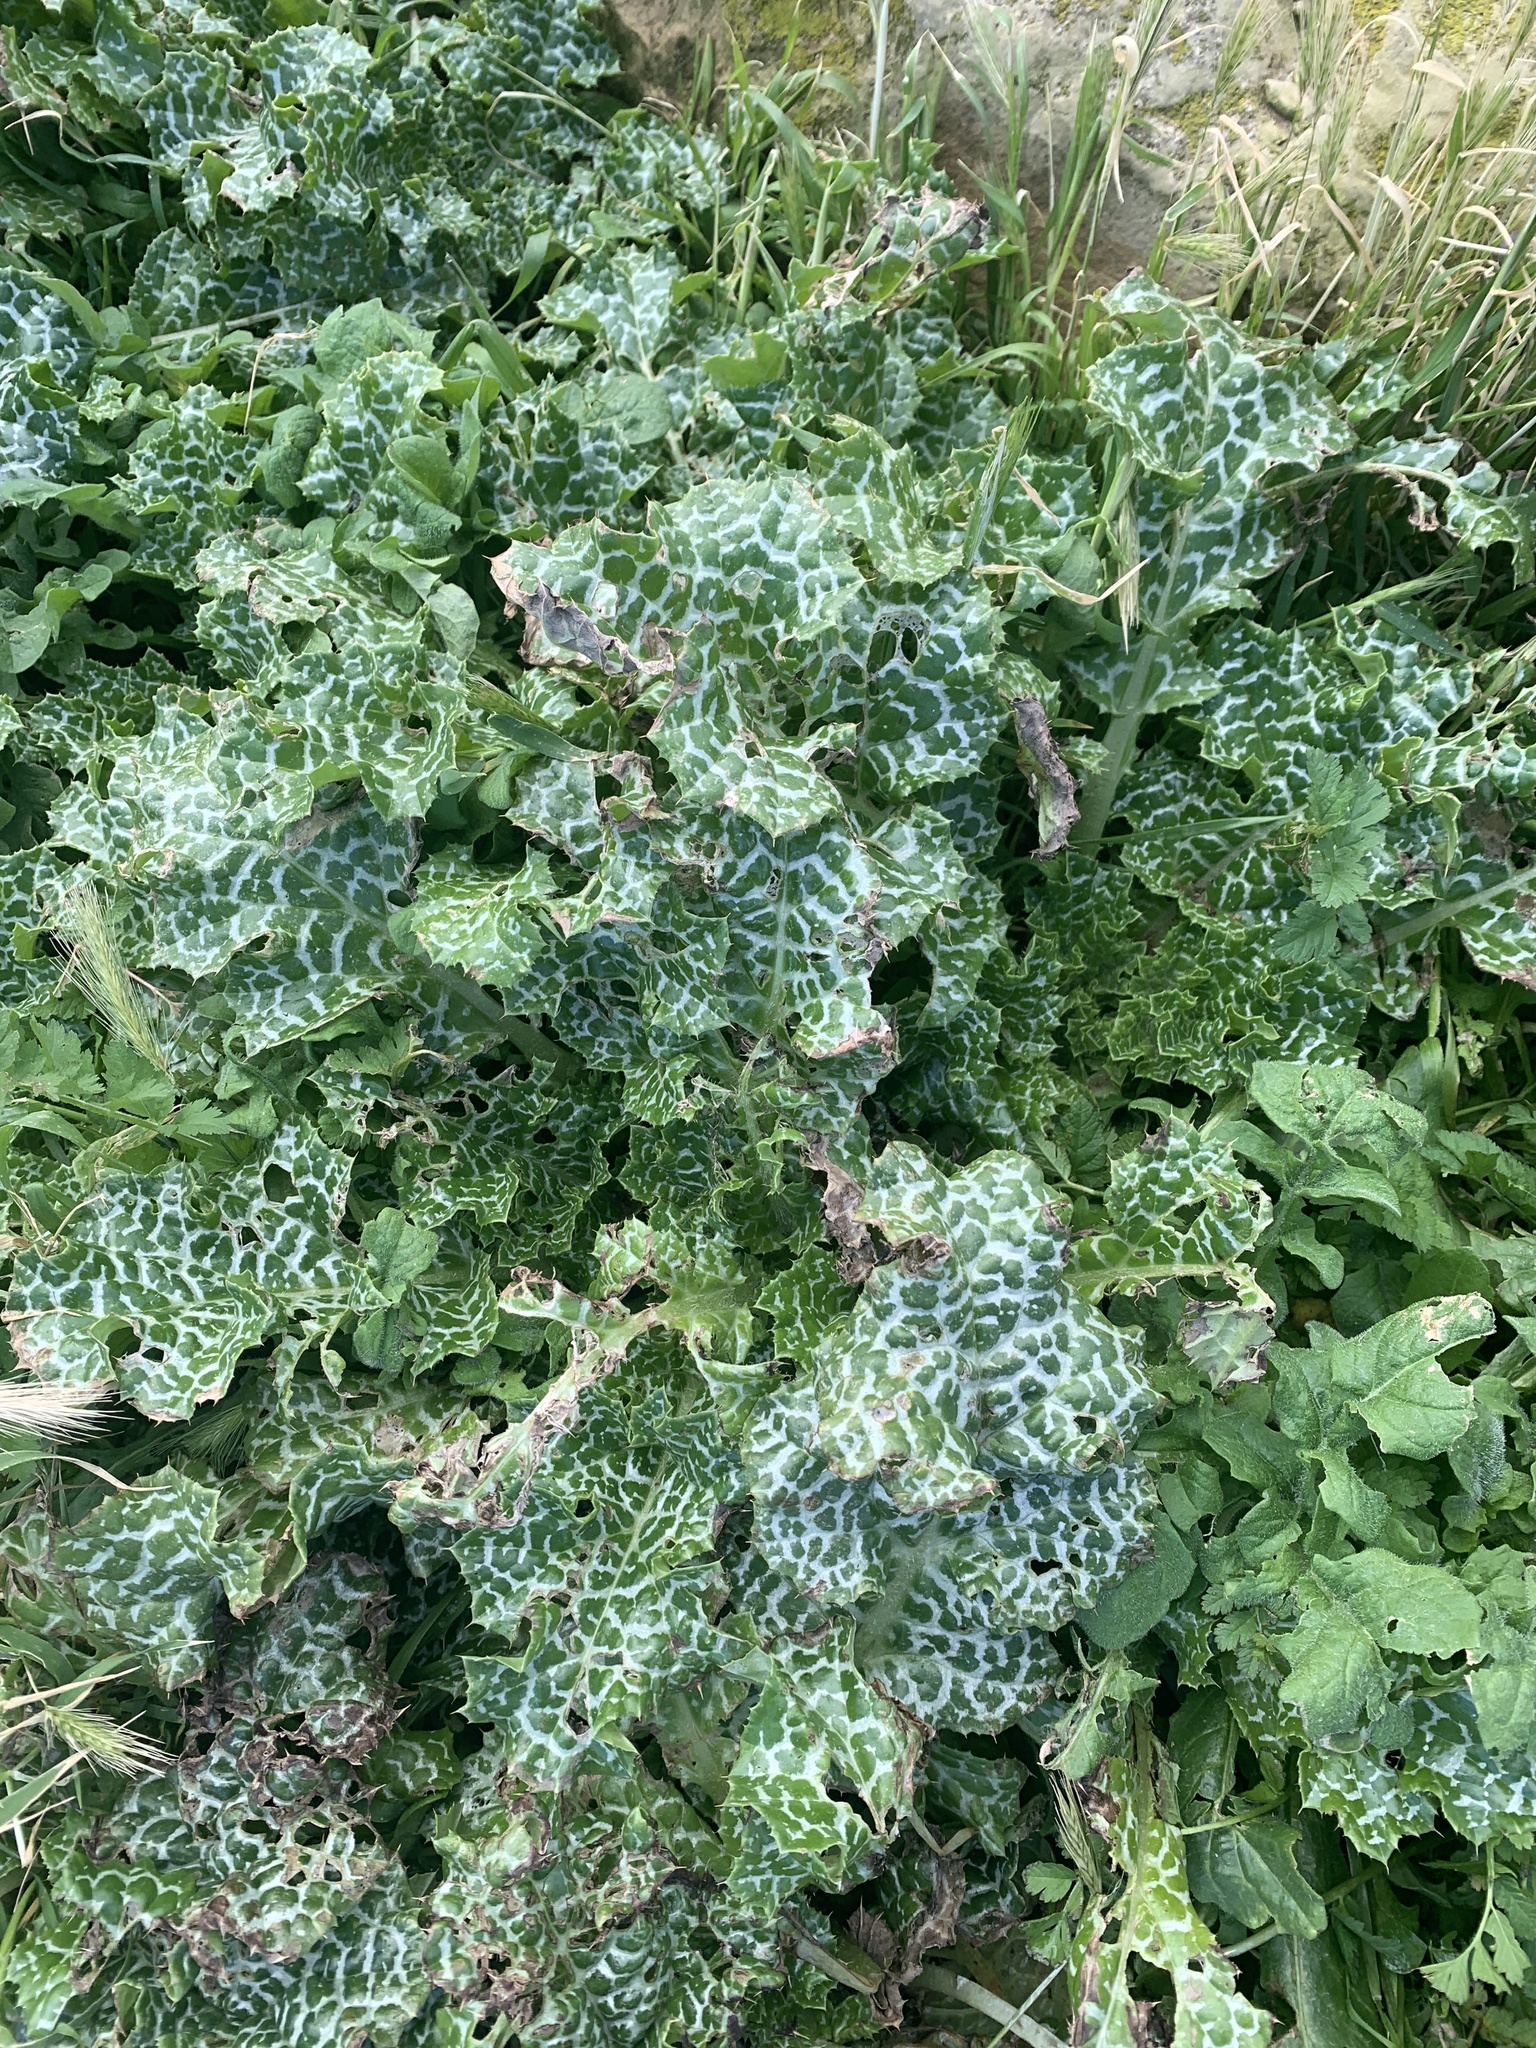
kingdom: Plantae
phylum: Tracheophyta
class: Magnoliopsida
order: Asterales
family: Asteraceae
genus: Silybum
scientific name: Silybum marianum
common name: Milk thistle
